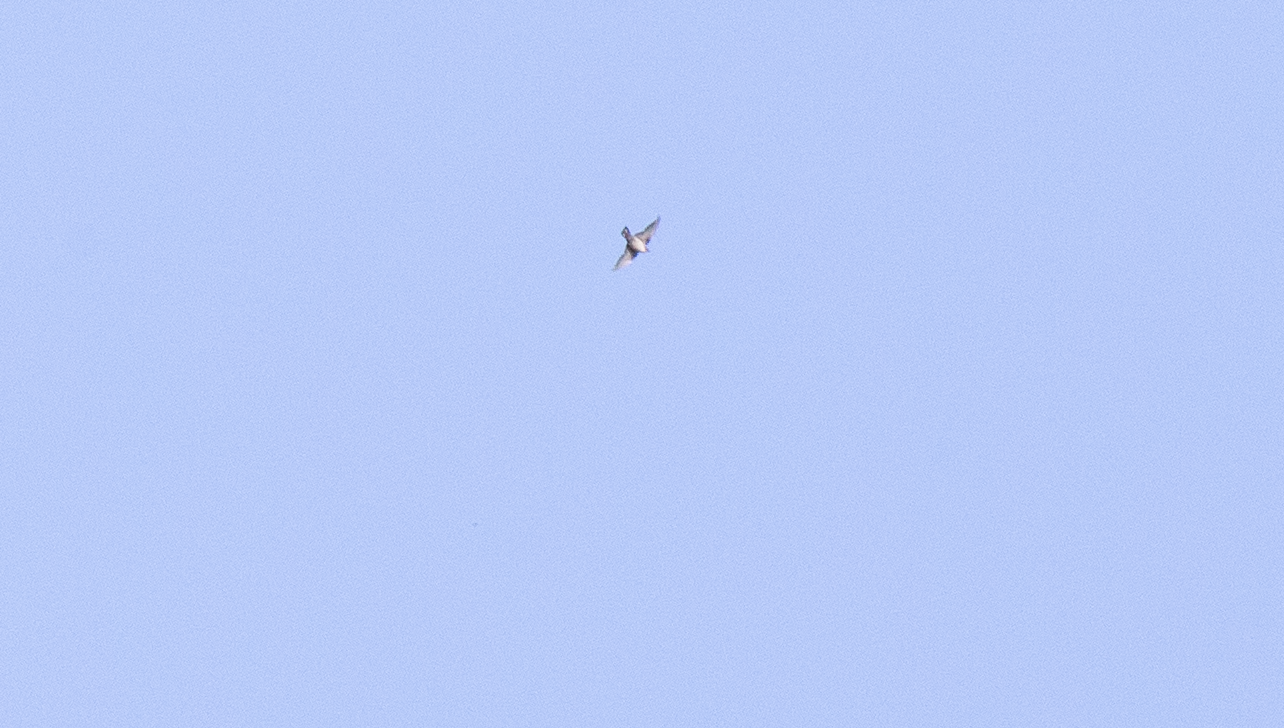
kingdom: Animalia
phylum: Chordata
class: Aves
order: Passeriformes
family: Hirundinidae
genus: Ptyonoprogne
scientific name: Ptyonoprogne rupestris
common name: Eurasian crag martin
